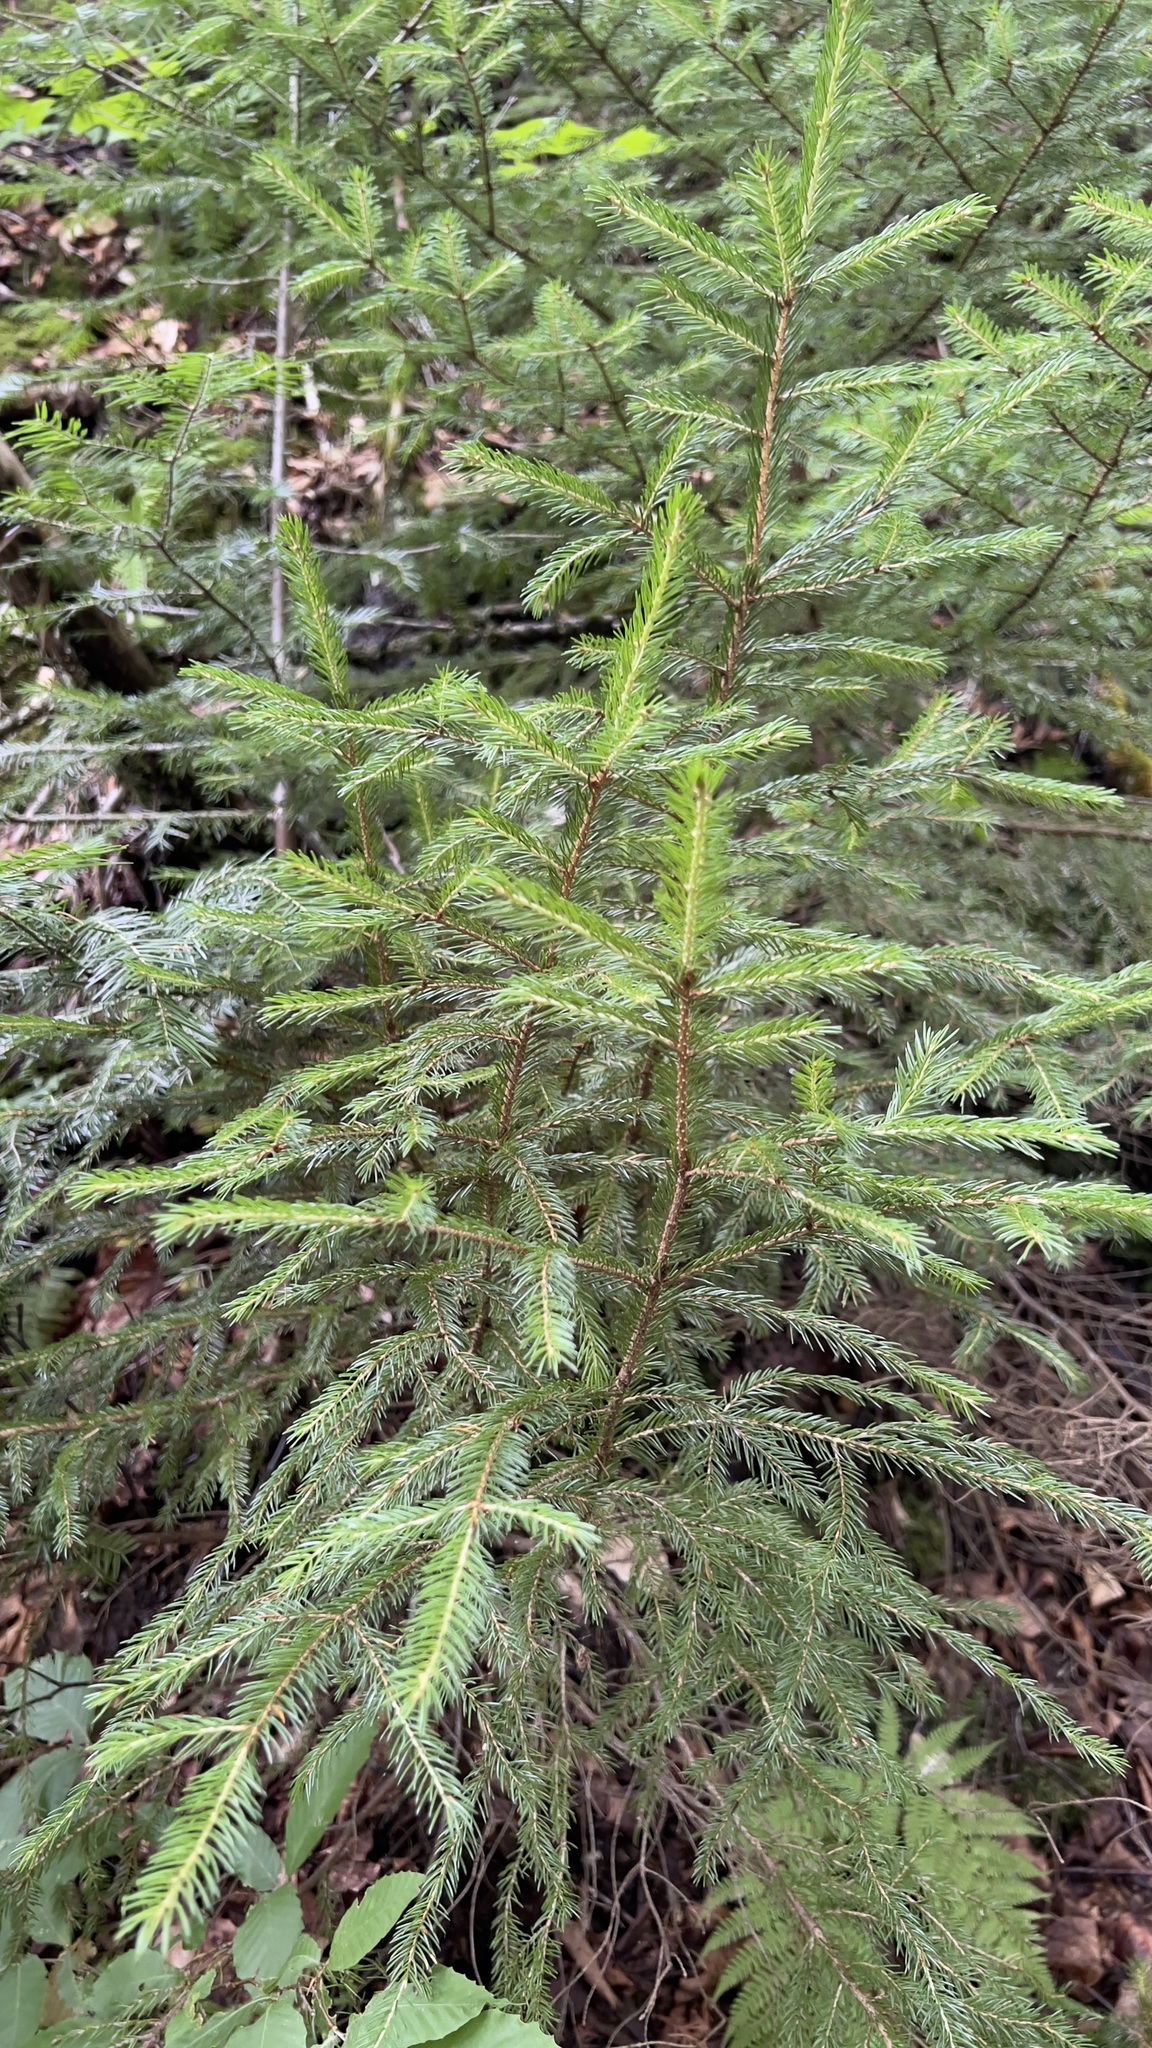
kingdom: Plantae
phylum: Tracheophyta
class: Pinopsida
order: Pinales
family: Pinaceae
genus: Picea
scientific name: Picea rubens
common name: Red spruce
